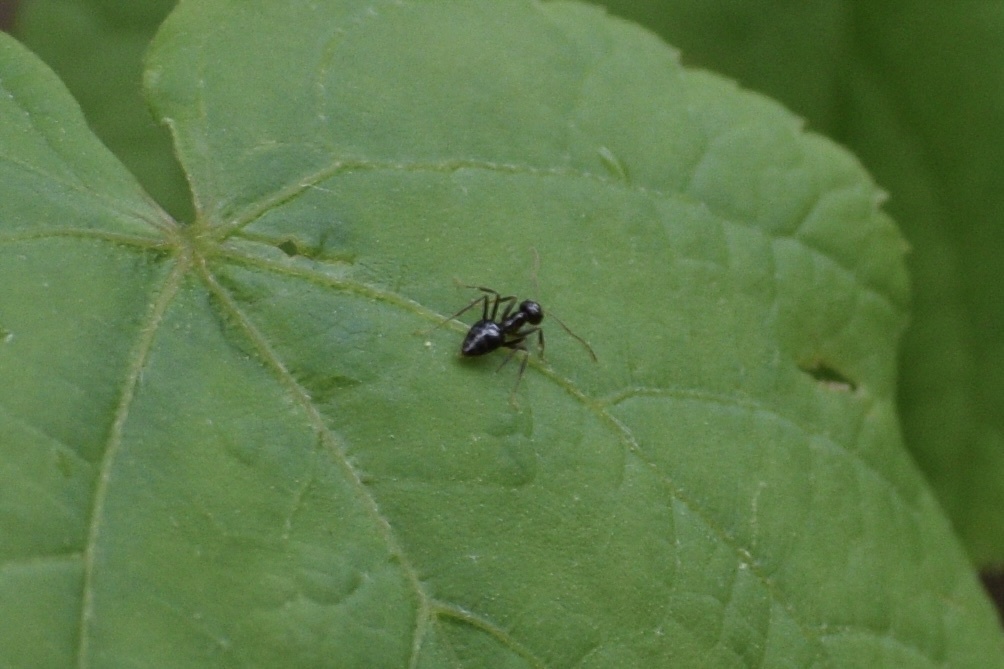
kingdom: Animalia
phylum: Arthropoda
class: Insecta
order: Hymenoptera
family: Formicidae
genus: Prenolepis
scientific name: Prenolepis imparis
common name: Small honey ant
